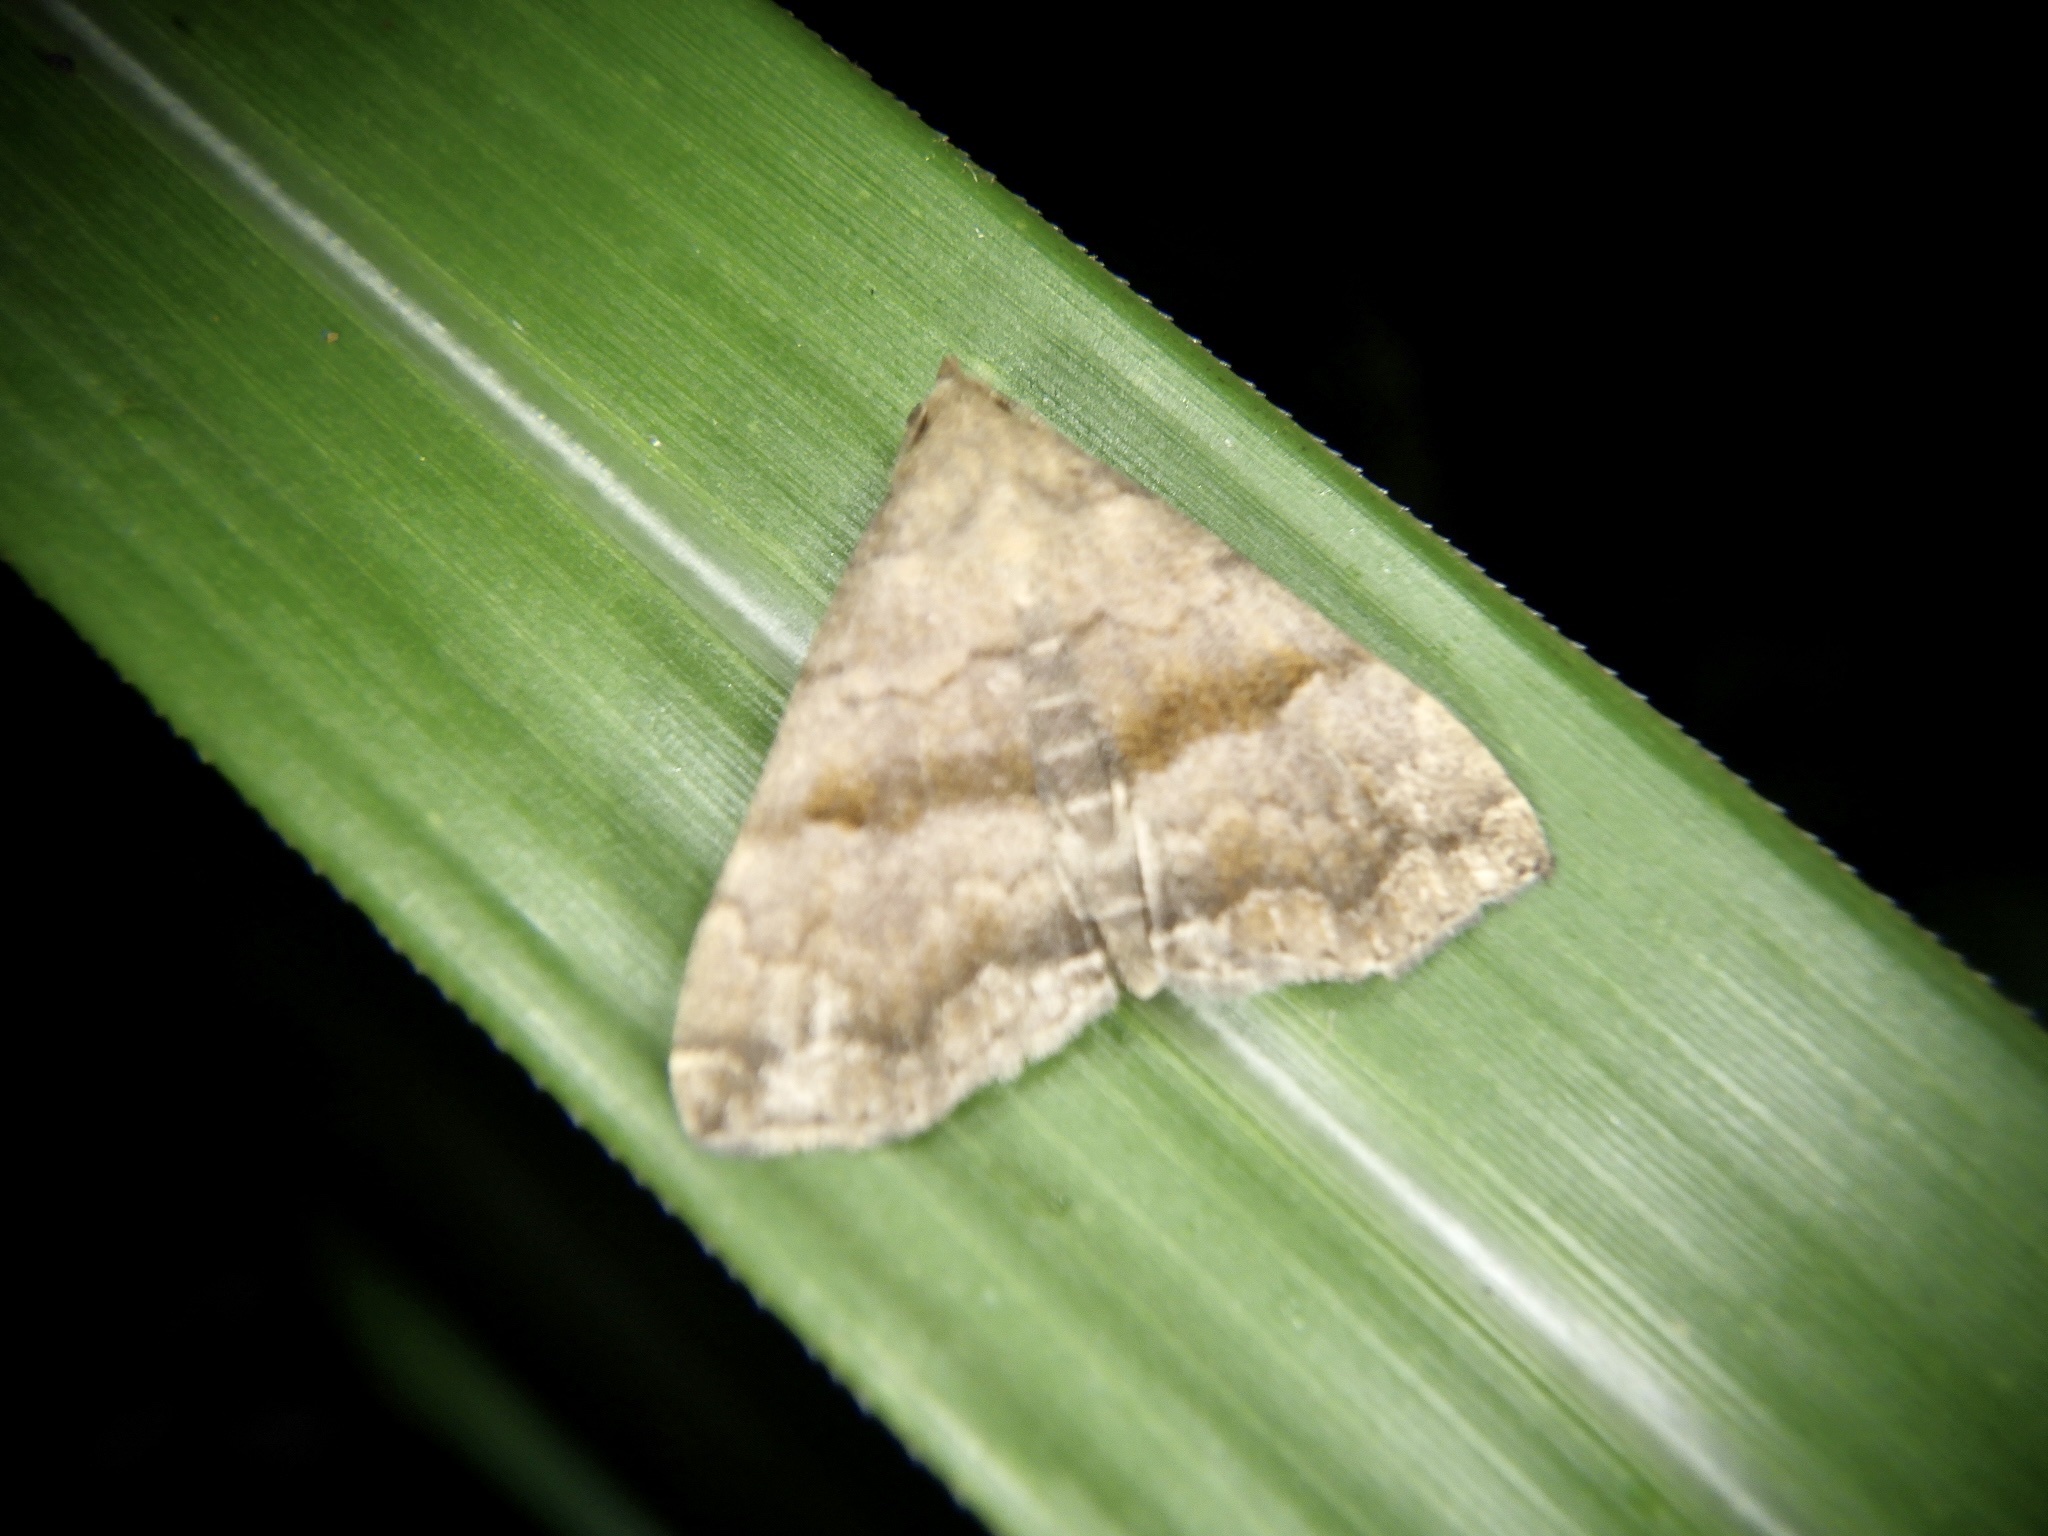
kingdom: Animalia
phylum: Arthropoda
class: Insecta
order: Lepidoptera
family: Erebidae
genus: Polypogon
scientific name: Polypogon Hipoepa fractalis
